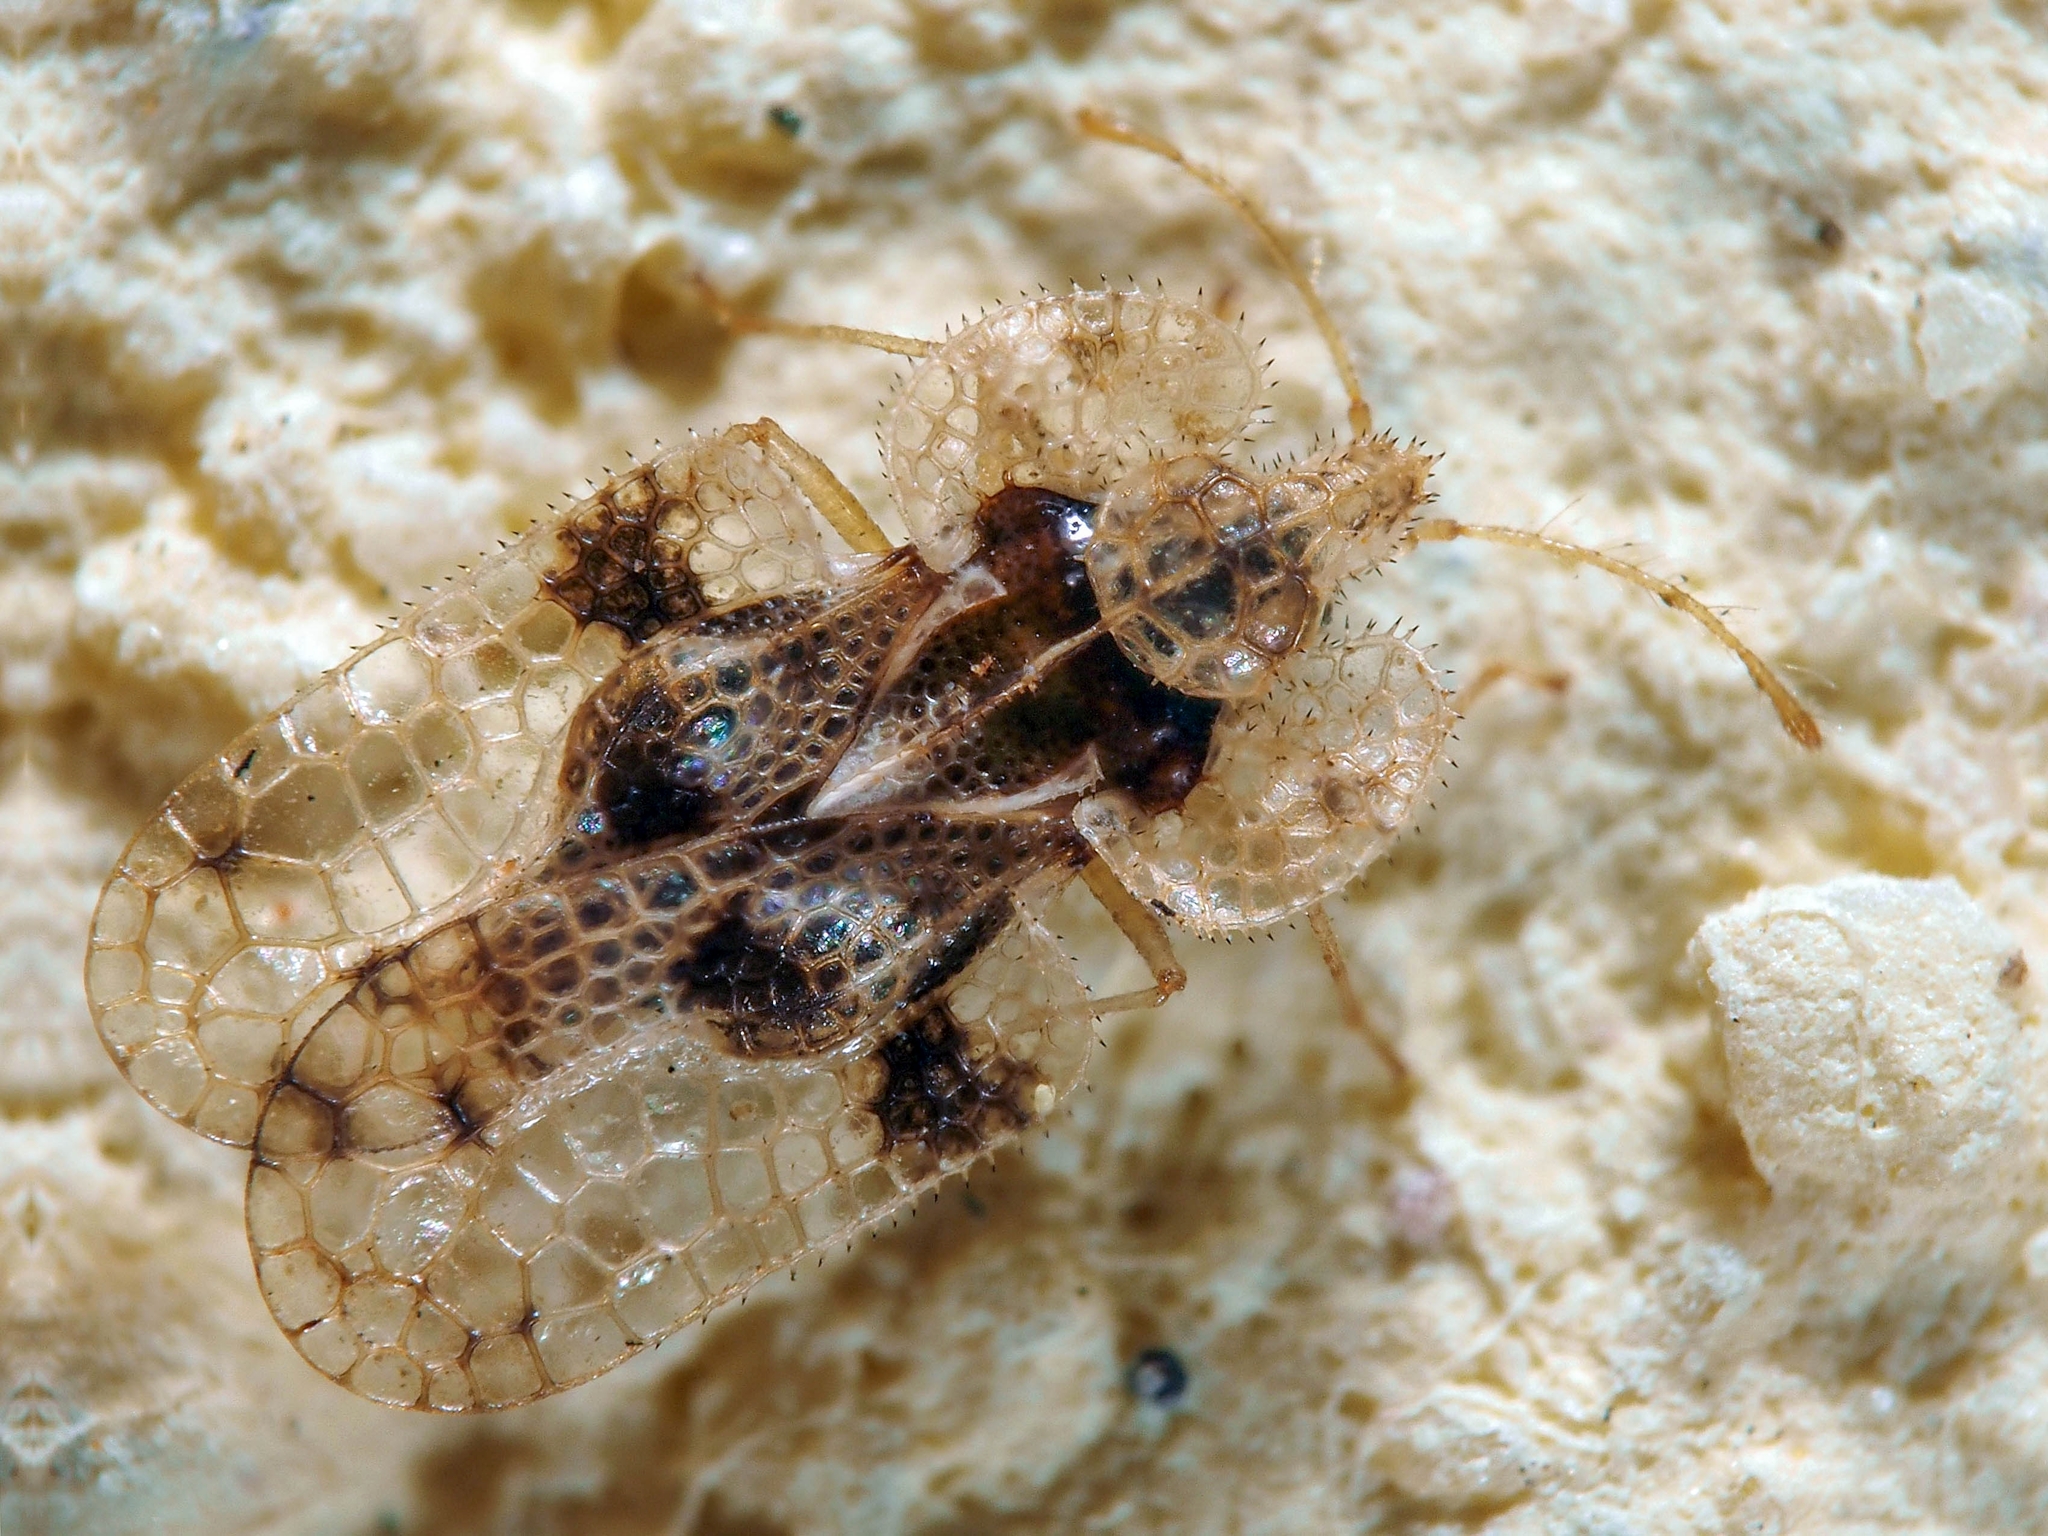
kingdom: Animalia
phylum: Arthropoda
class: Insecta
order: Hemiptera
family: Tingidae
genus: Corythucha
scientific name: Corythucha arcuata
